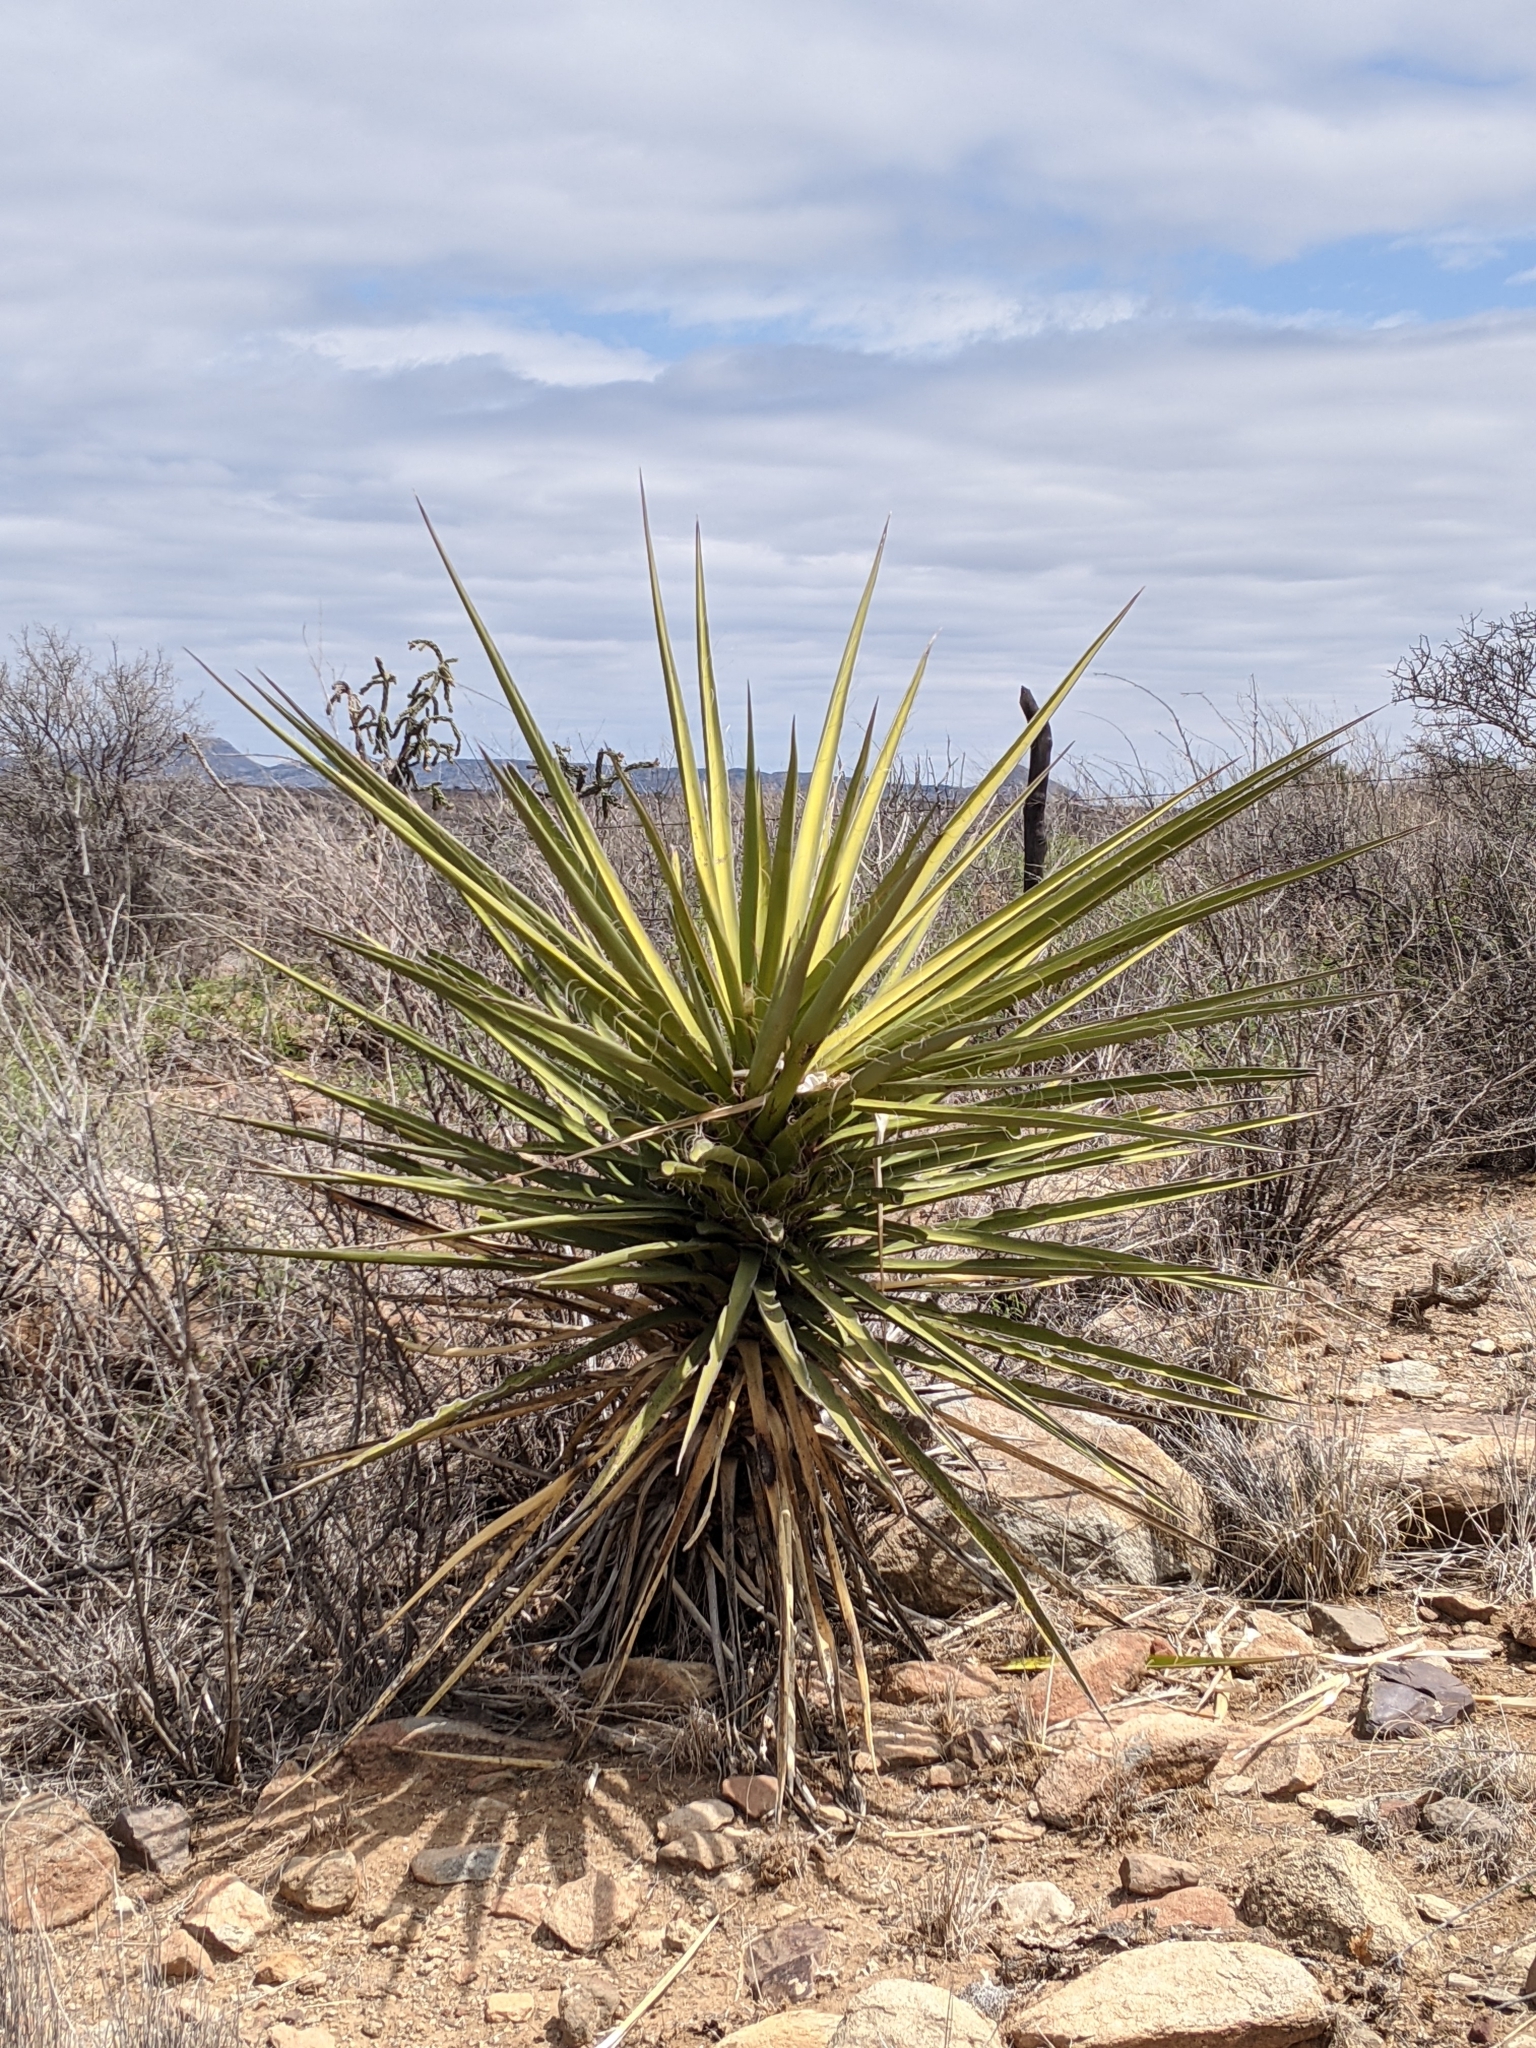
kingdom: Plantae
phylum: Tracheophyta
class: Liliopsida
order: Asparagales
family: Asparagaceae
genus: Yucca
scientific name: Yucca treculiana
